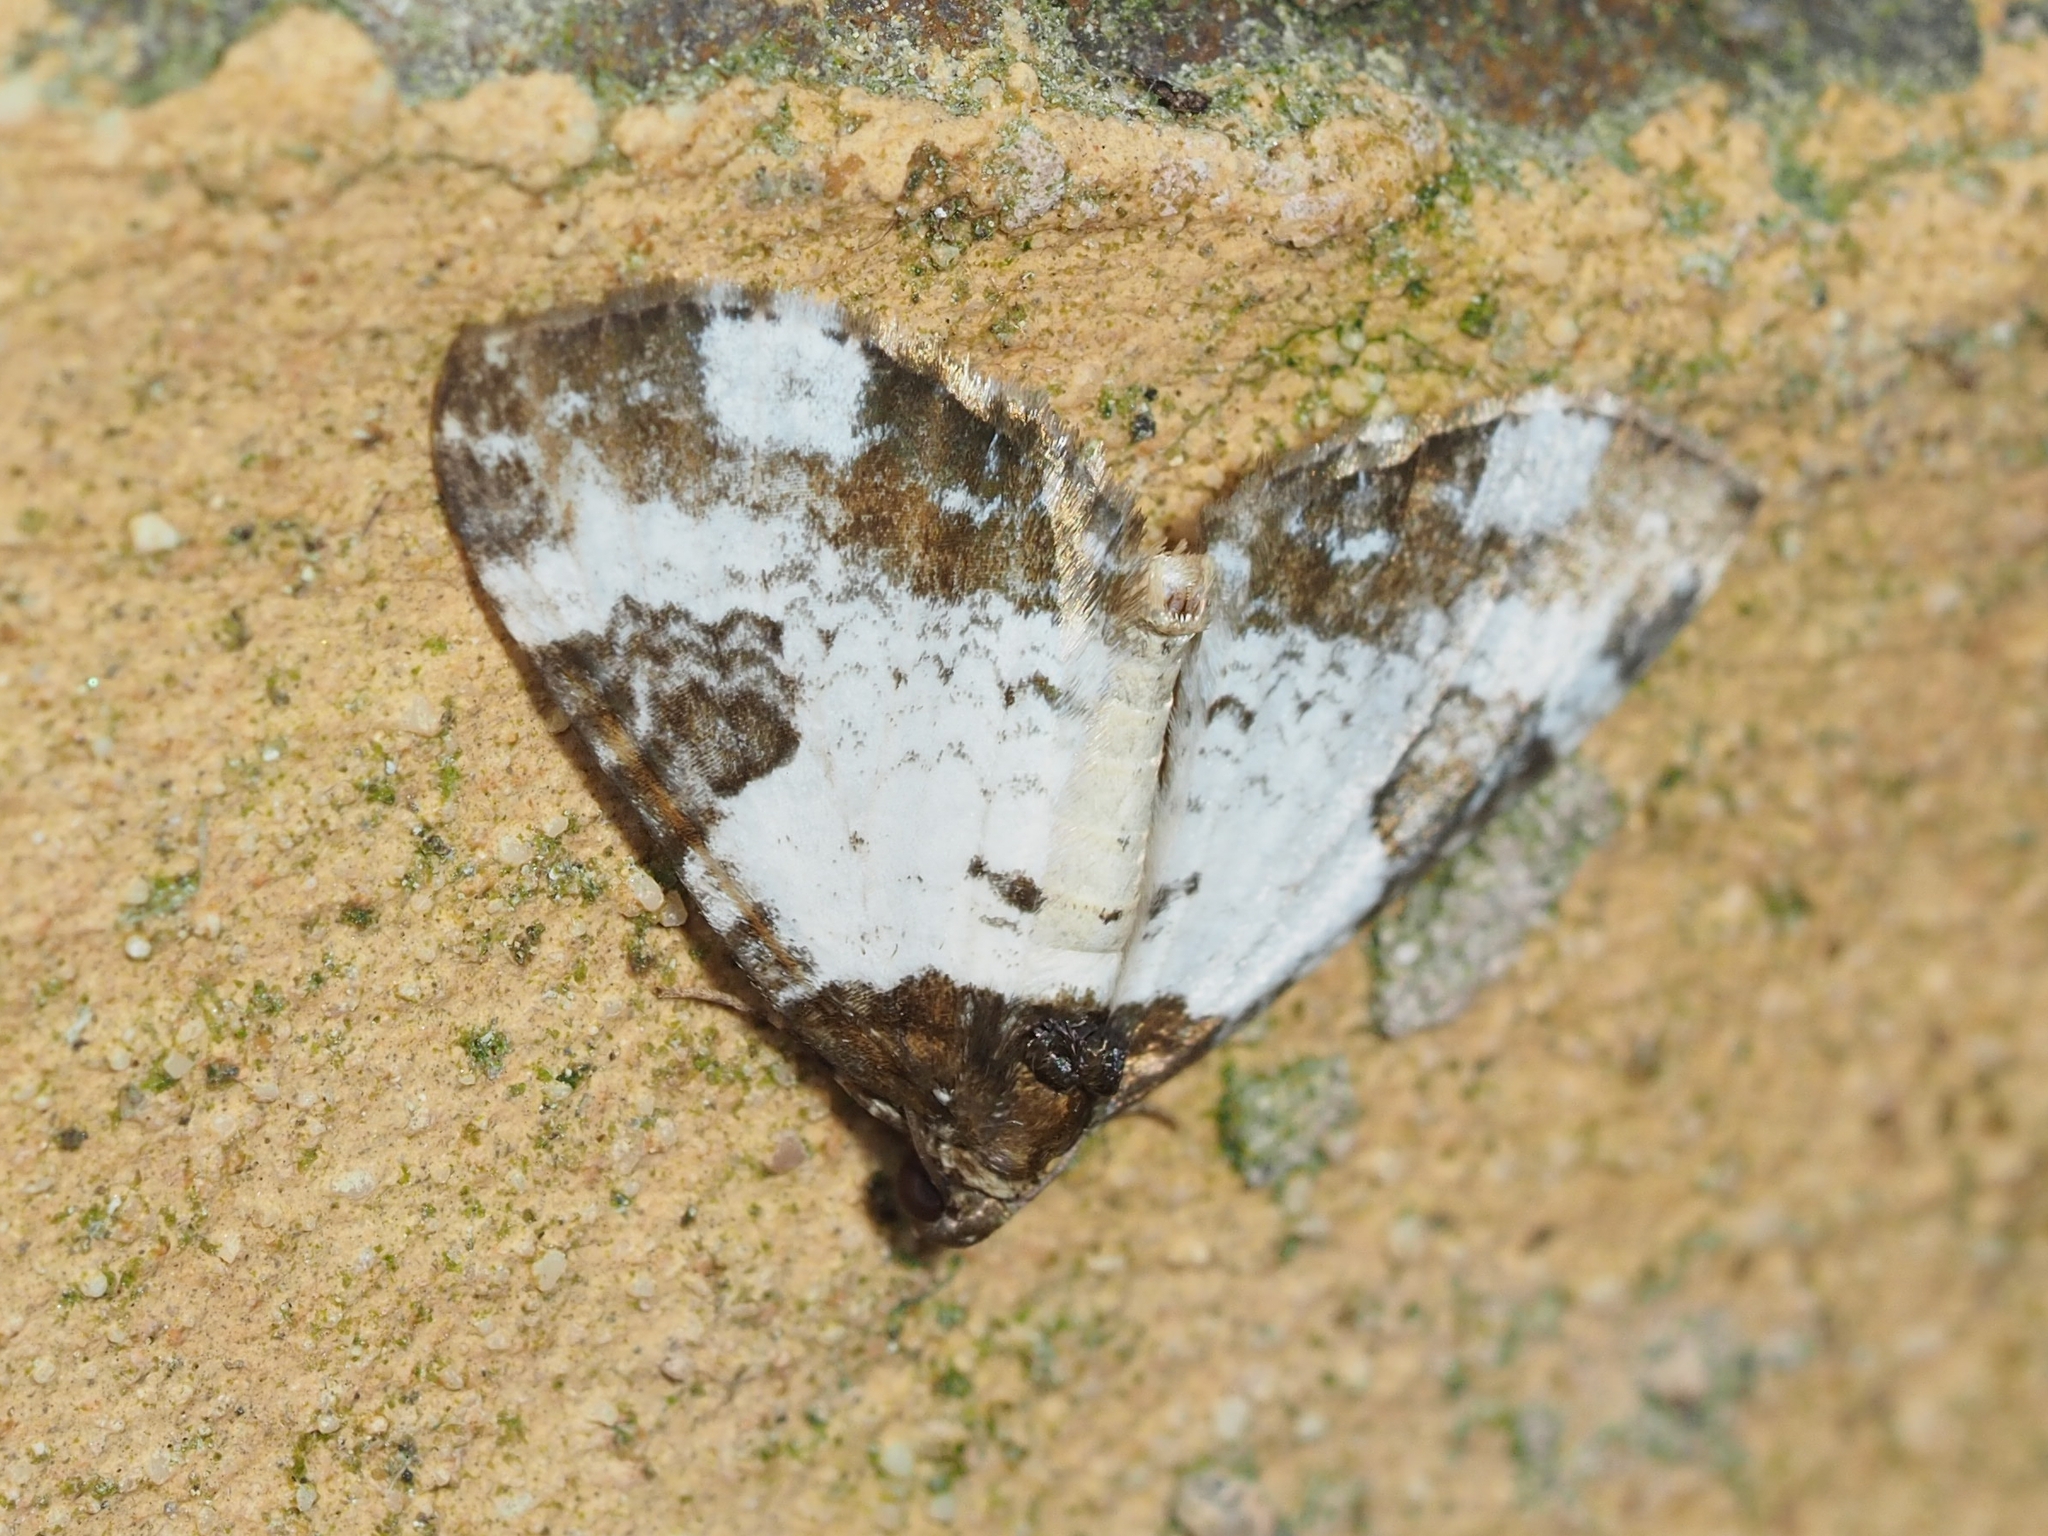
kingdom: Animalia
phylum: Arthropoda
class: Insecta
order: Lepidoptera
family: Geometridae
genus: Melanthia
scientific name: Melanthia procellata
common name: Pretty chalk carpet
